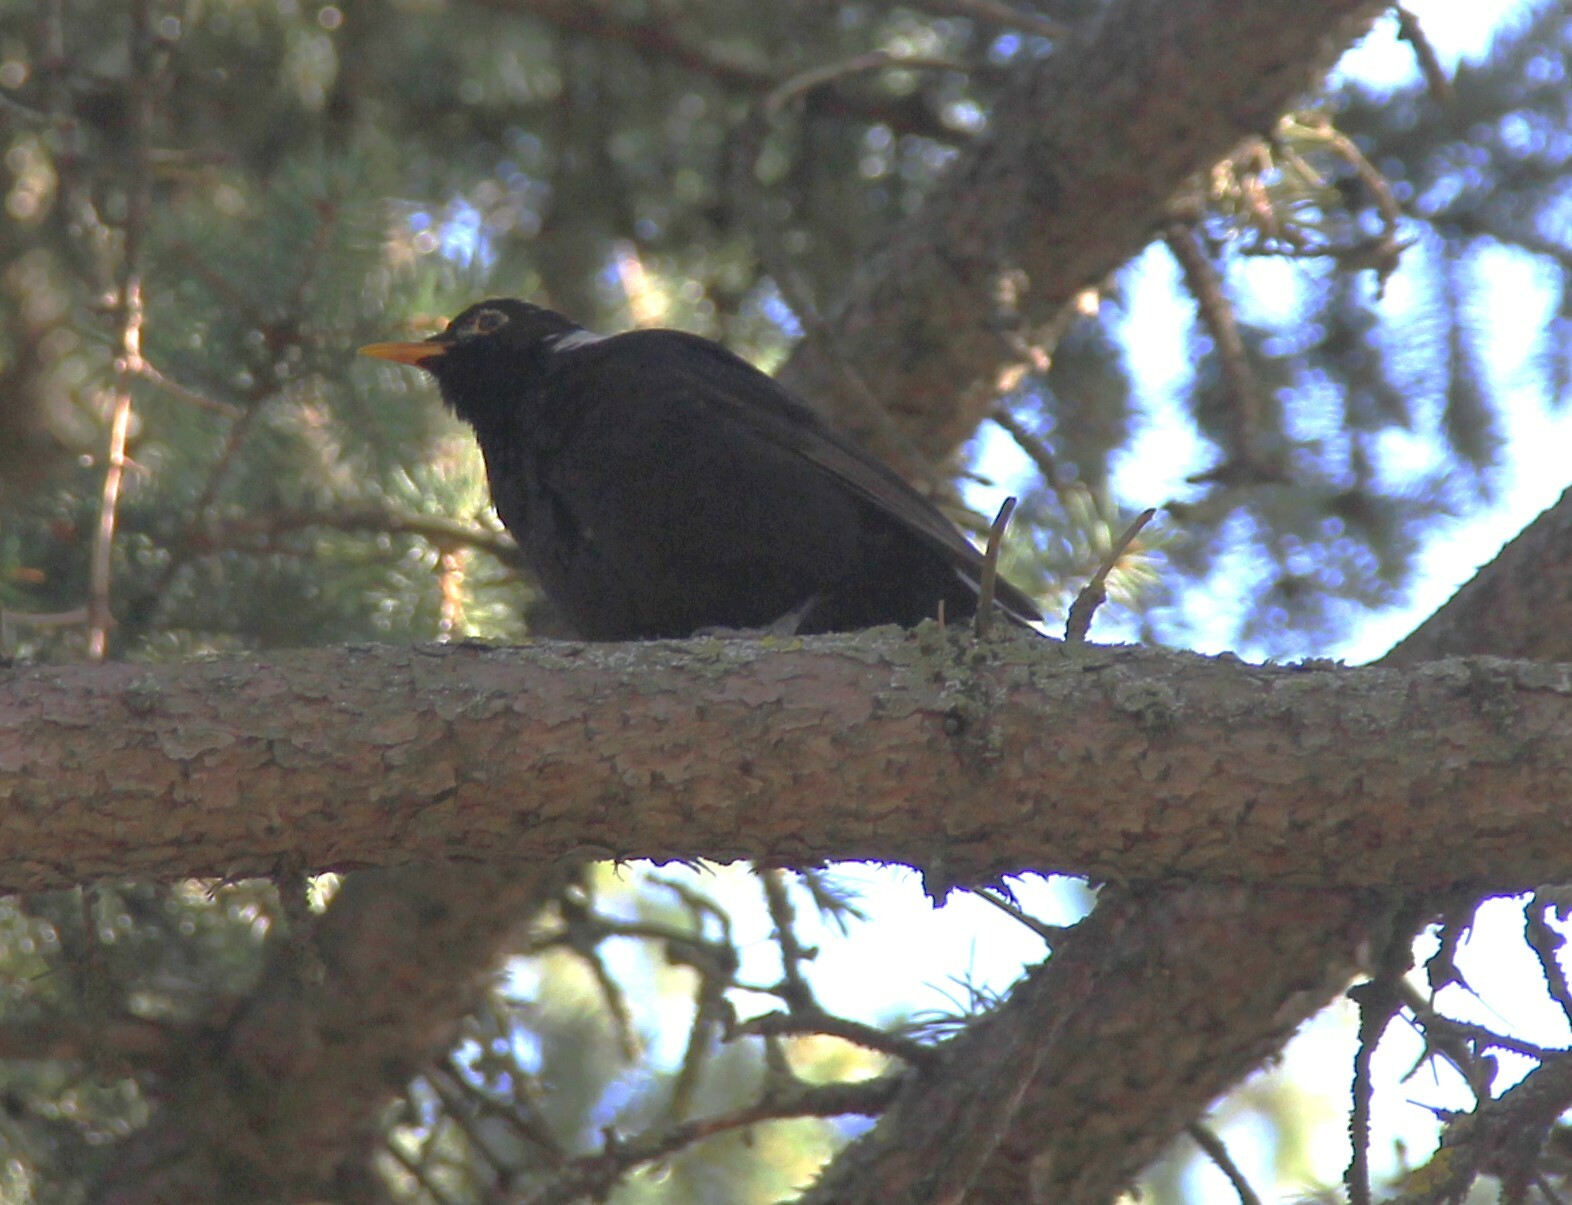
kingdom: Animalia
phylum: Chordata
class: Aves
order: Passeriformes
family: Turdidae
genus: Turdus
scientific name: Turdus merula
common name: Common blackbird
